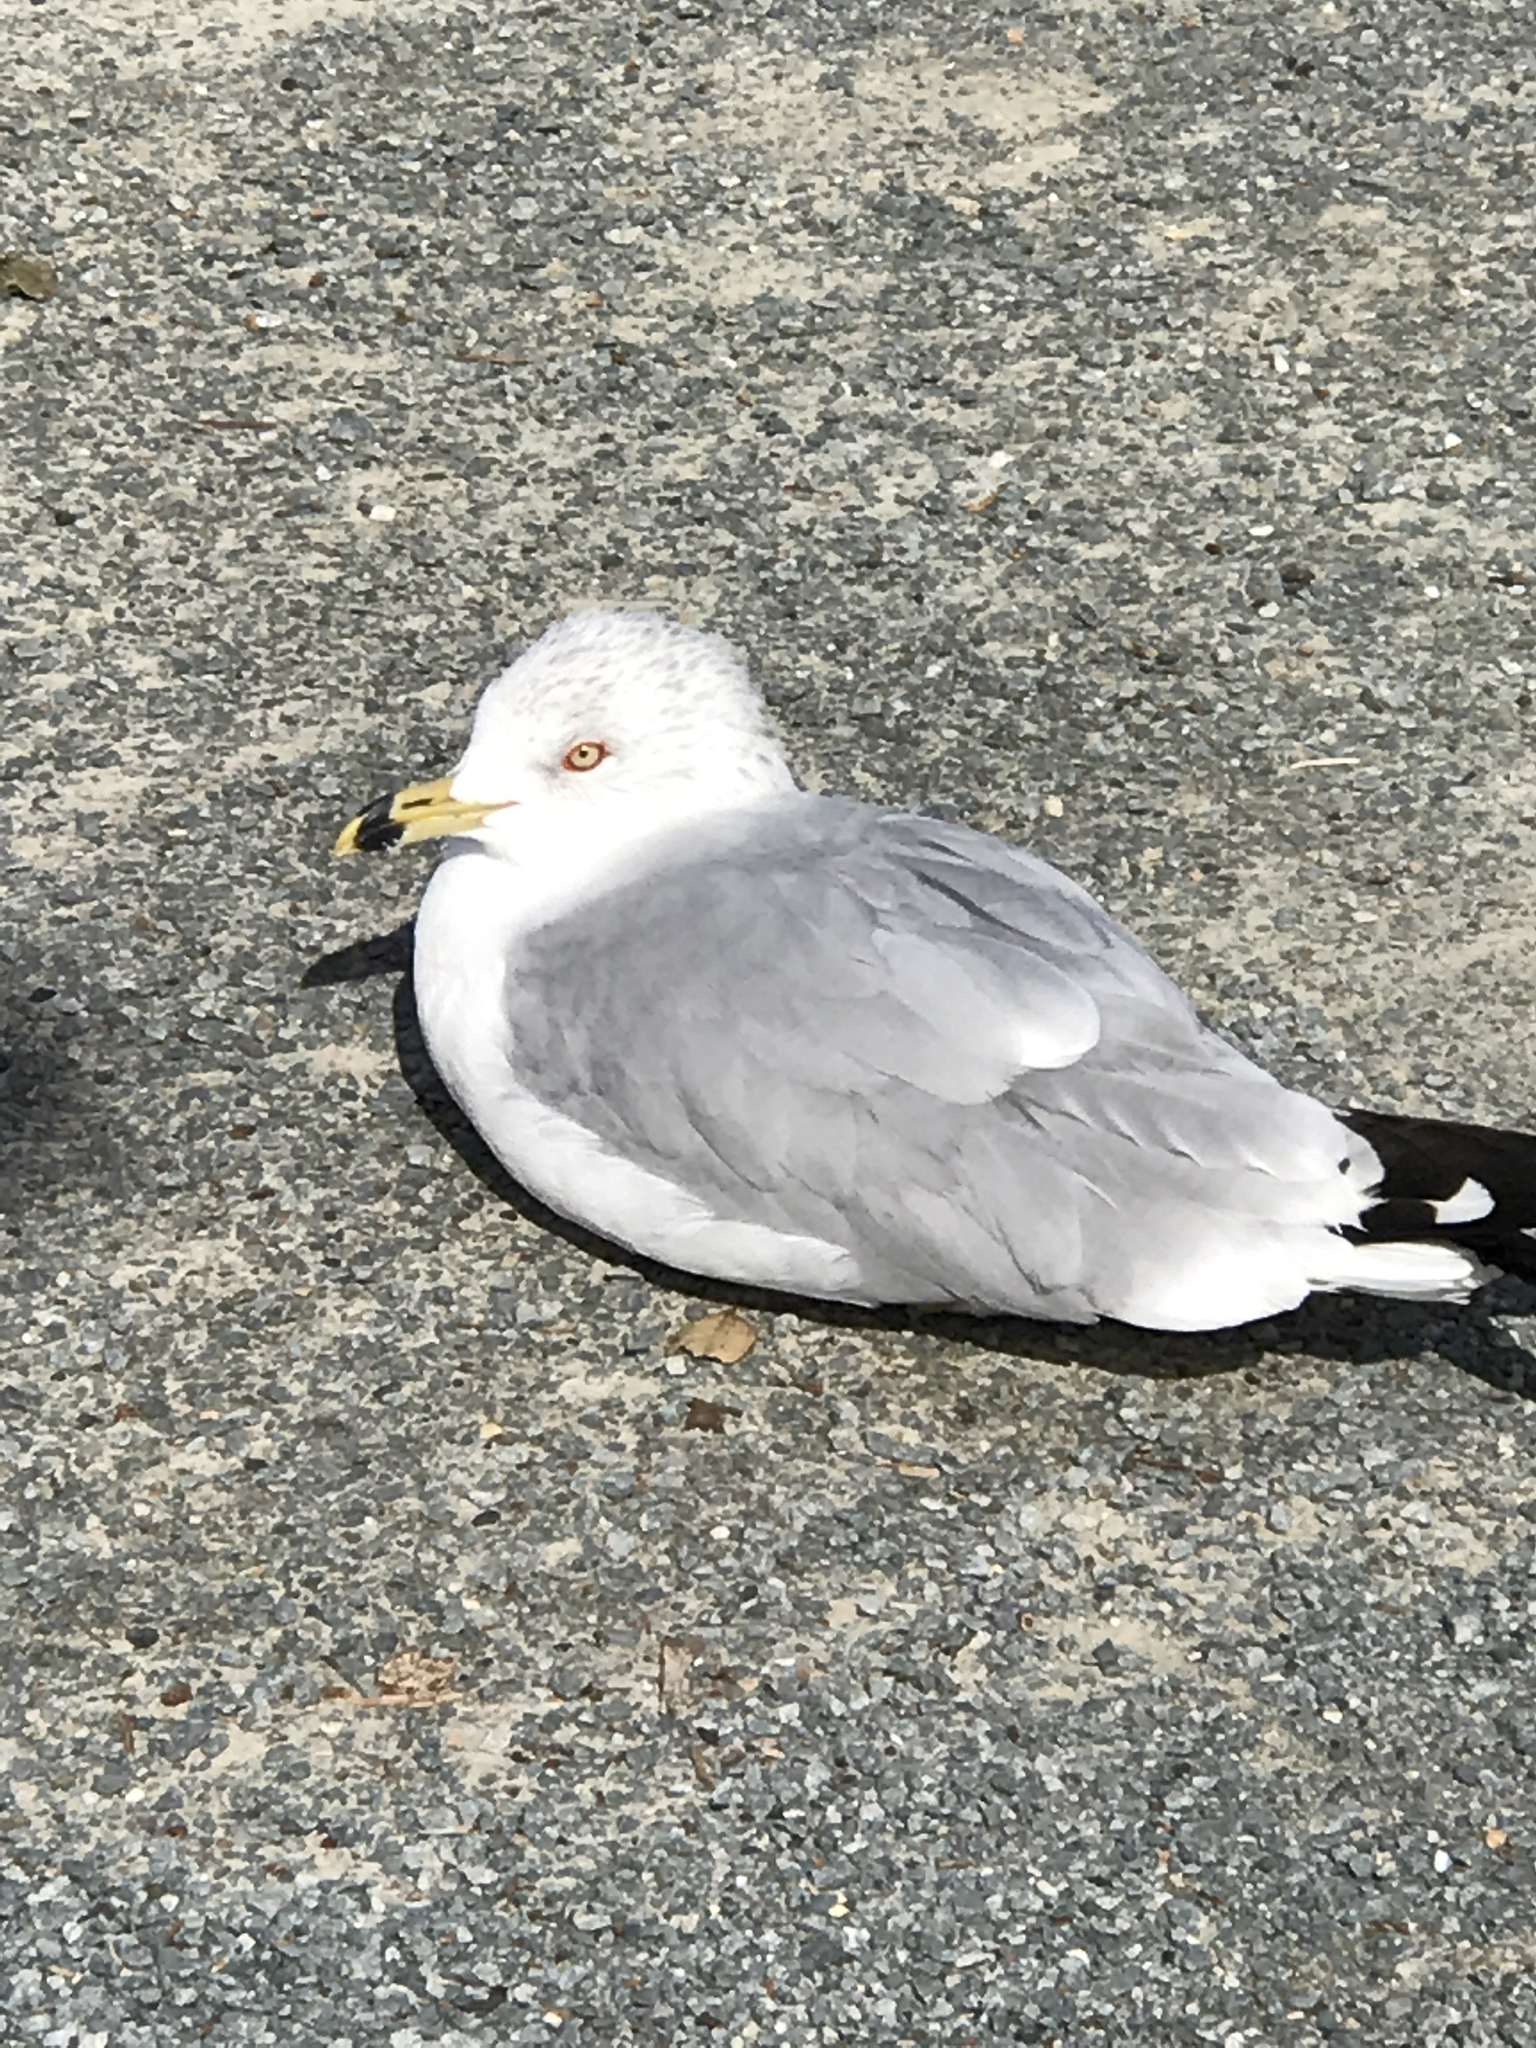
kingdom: Animalia
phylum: Chordata
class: Aves
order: Charadriiformes
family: Laridae
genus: Larus
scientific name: Larus delawarensis
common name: Ring-billed gull
